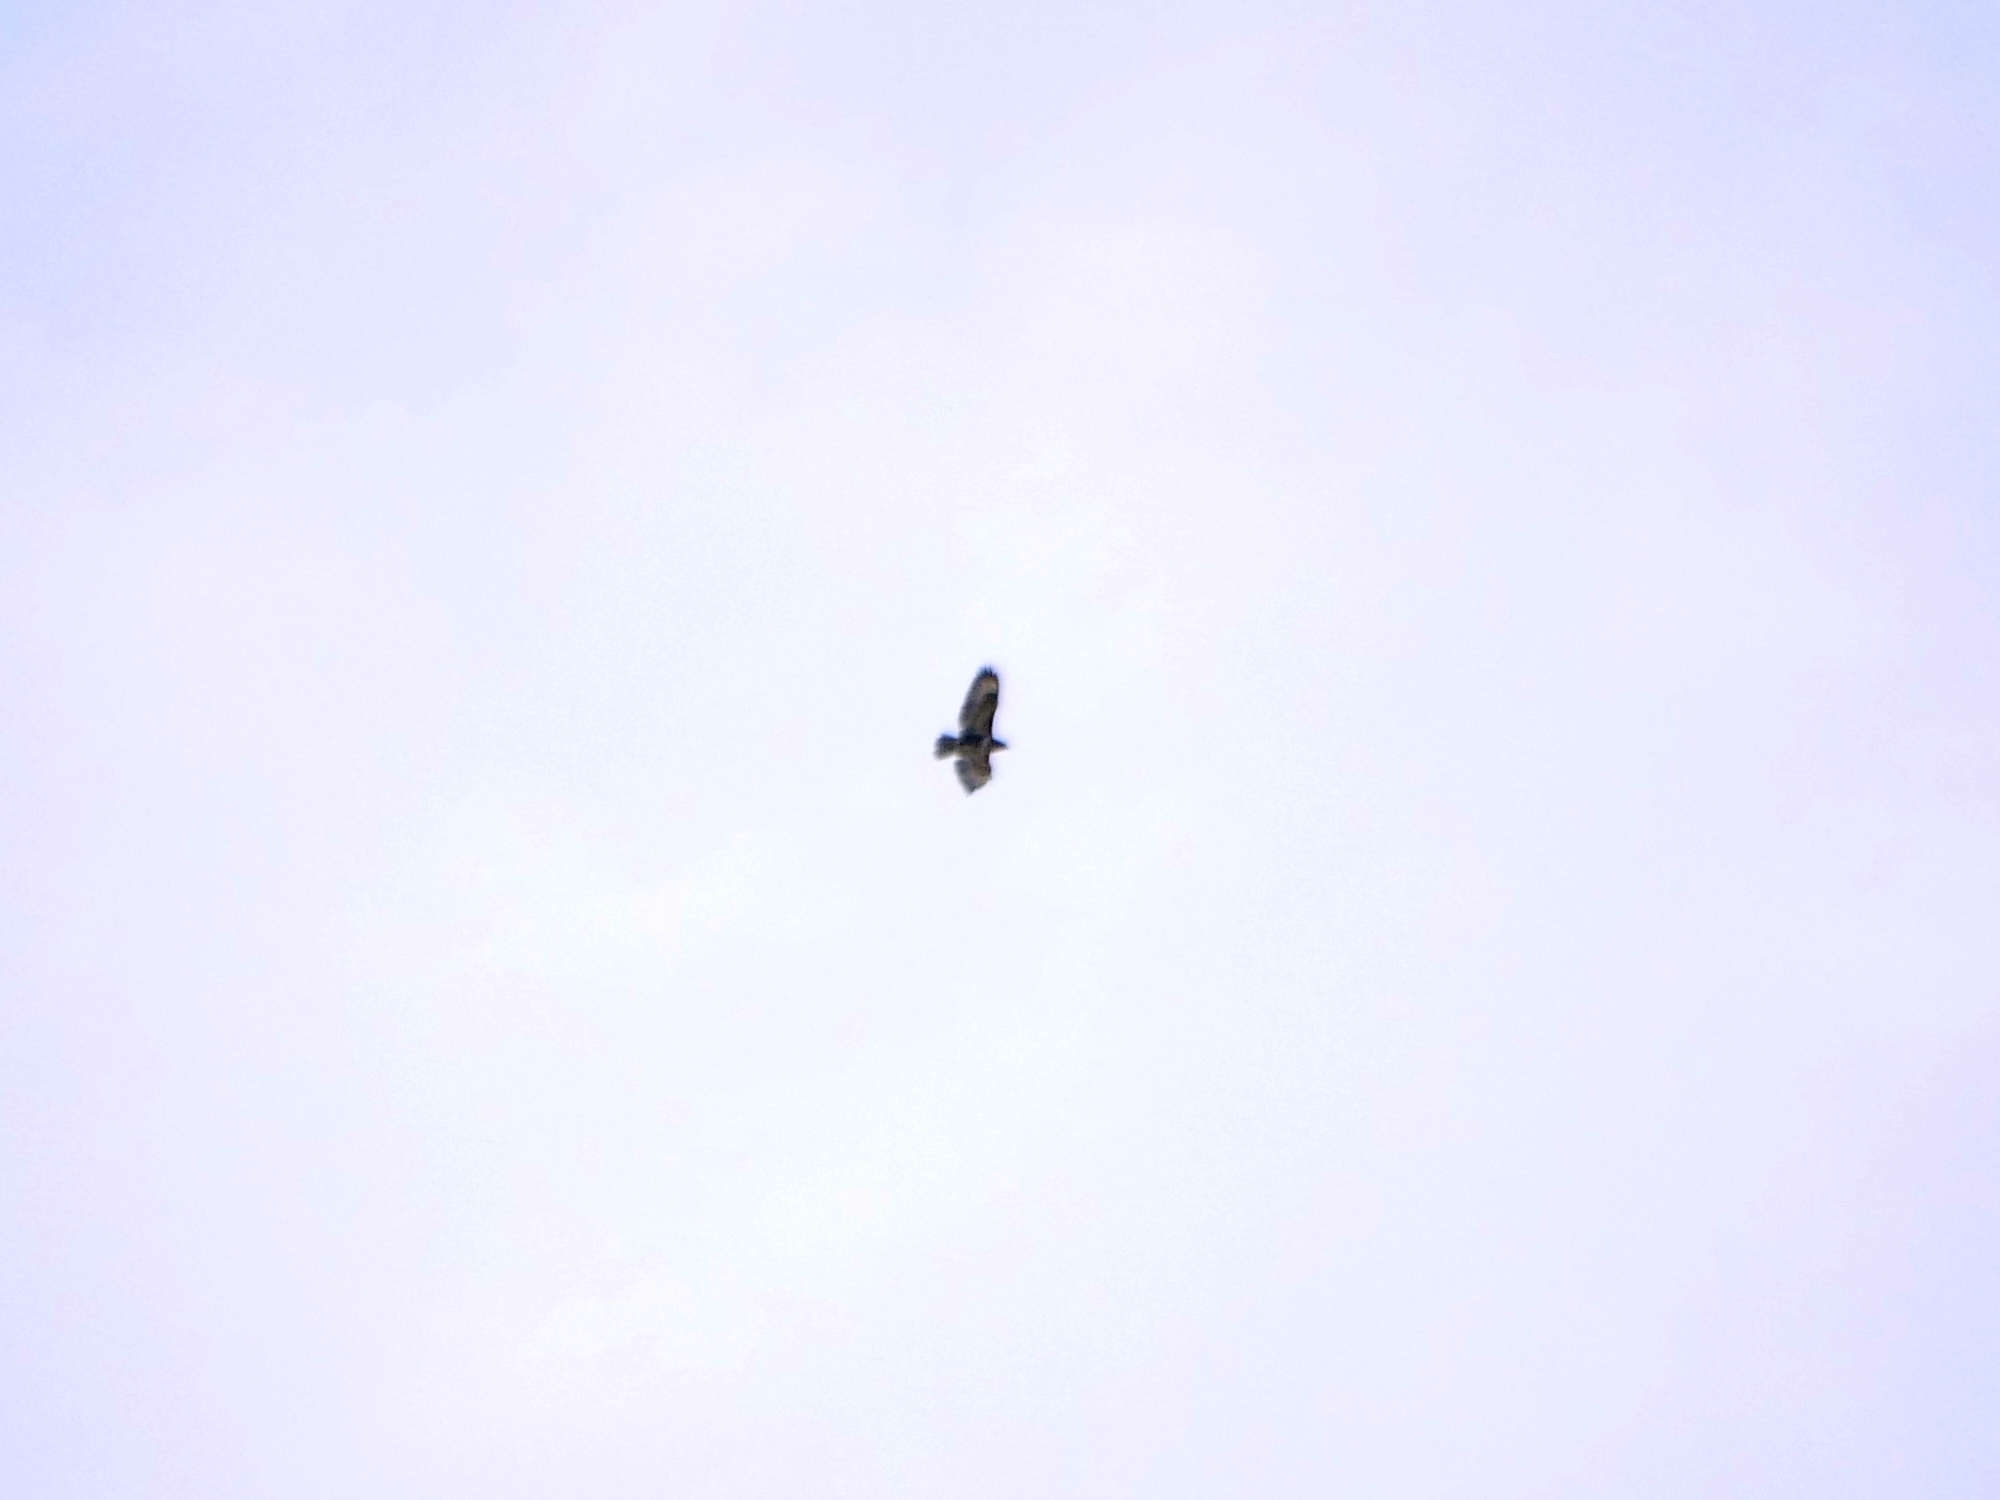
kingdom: Animalia
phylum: Chordata
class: Aves
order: Accipitriformes
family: Accipitridae
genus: Buteo
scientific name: Buteo buteo
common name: Common buzzard
